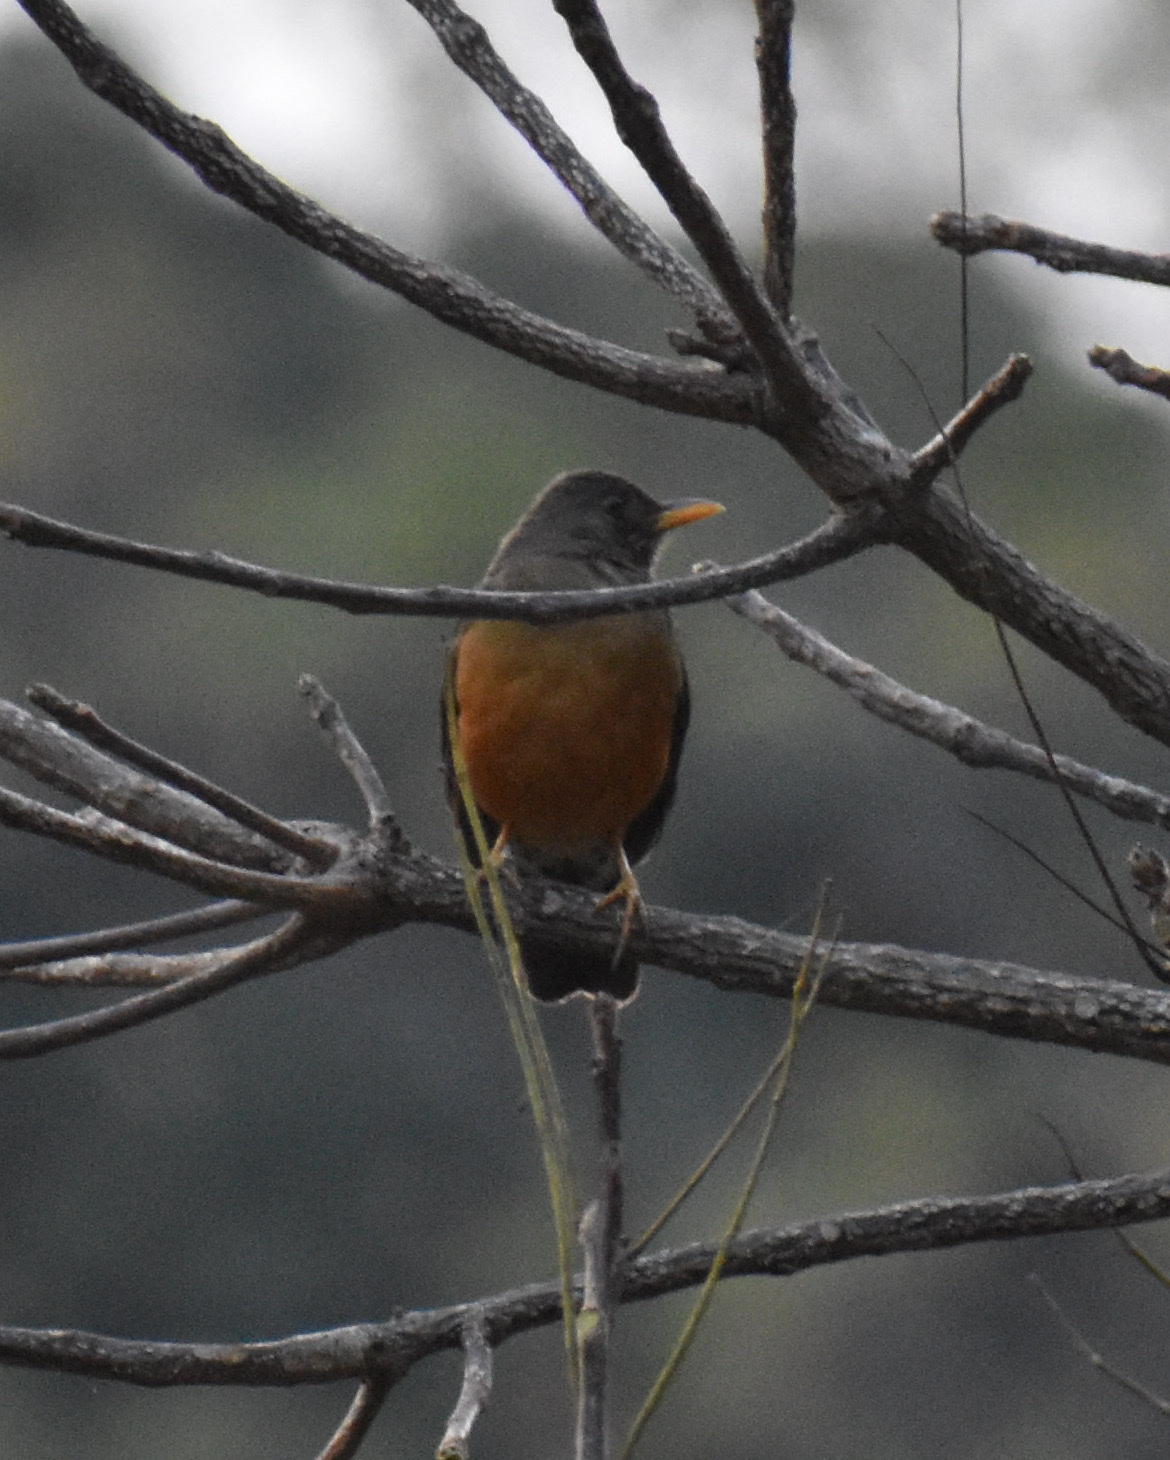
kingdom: Animalia
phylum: Chordata
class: Aves
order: Passeriformes
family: Turdidae
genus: Turdus
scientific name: Turdus olivaceus
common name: Olive thrush
